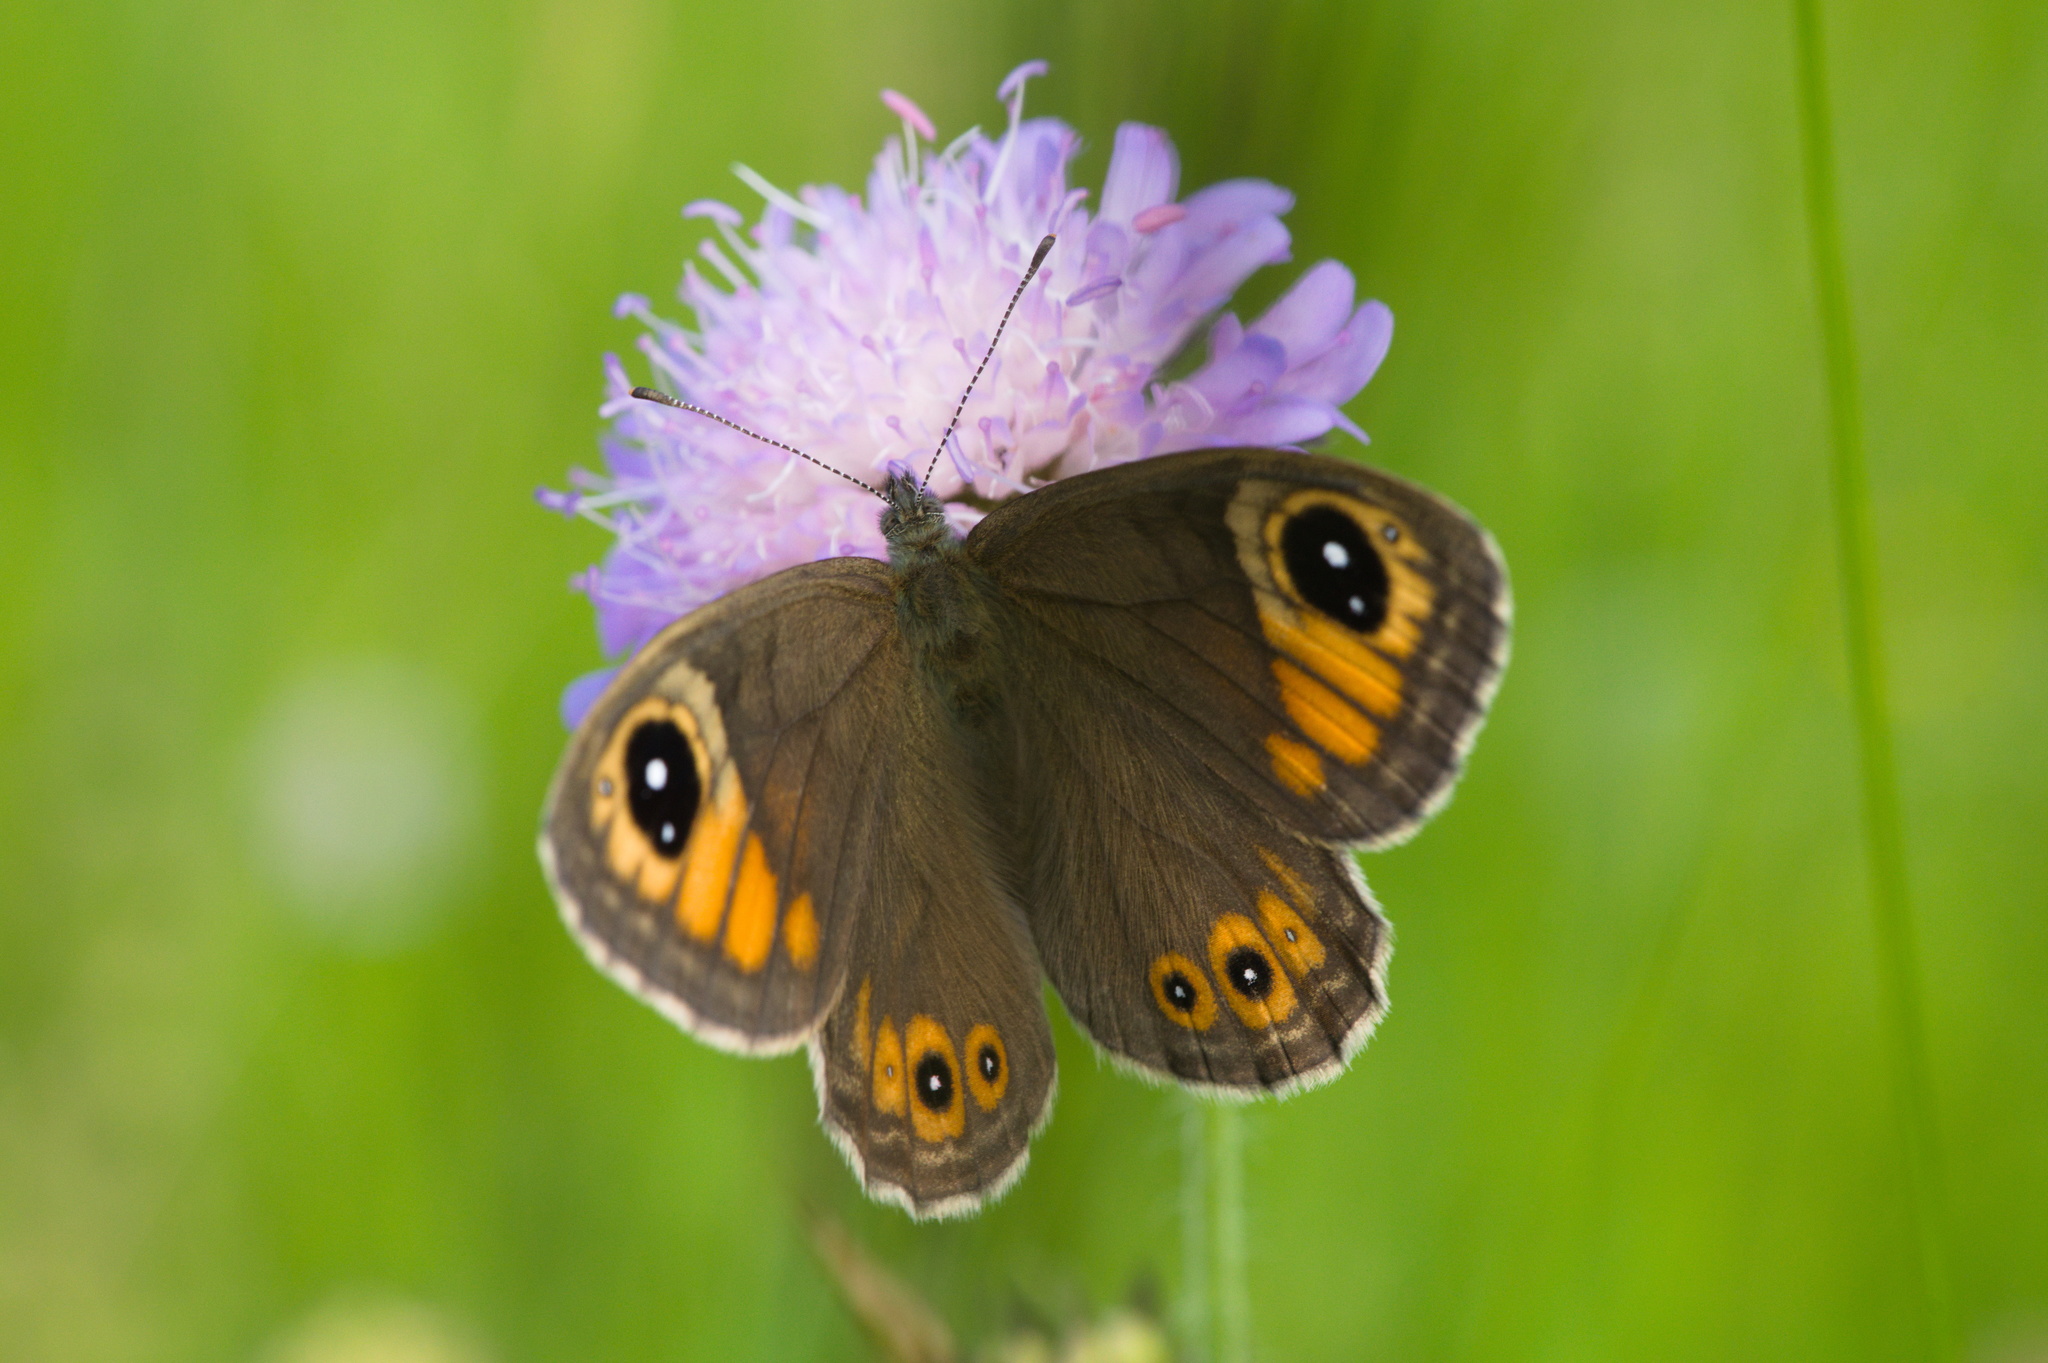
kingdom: Animalia
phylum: Arthropoda
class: Insecta
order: Lepidoptera
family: Nymphalidae
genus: Pararge
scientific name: Pararge Lasiommata maera
